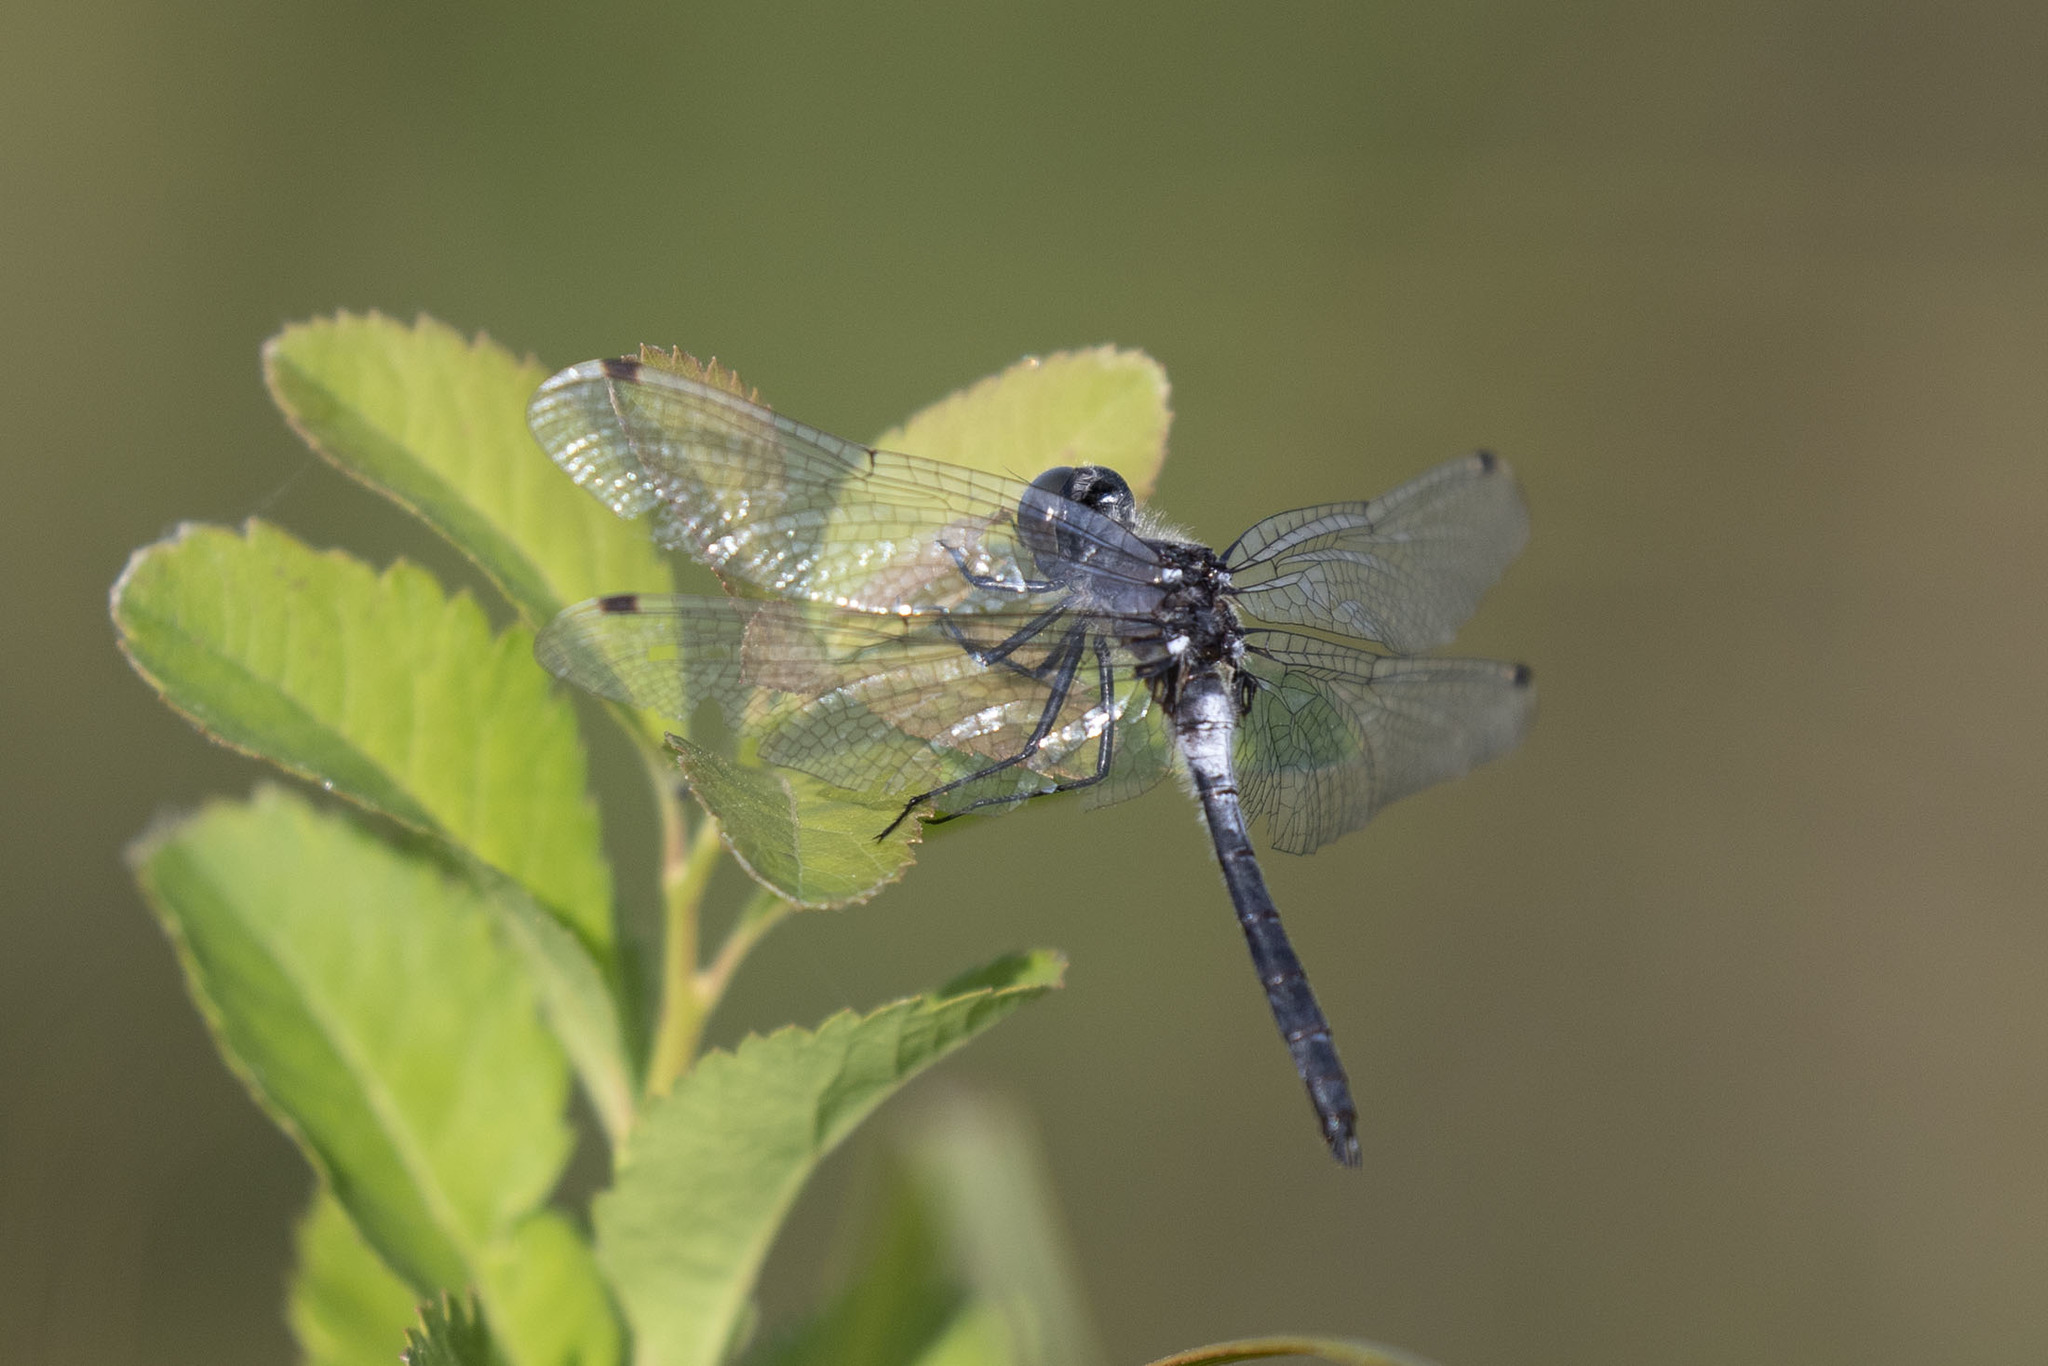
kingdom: Animalia
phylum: Arthropoda
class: Insecta
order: Odonata
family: Libellulidae
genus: Leucorrhinia
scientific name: Leucorrhinia frigida
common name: Frosted whiteface
